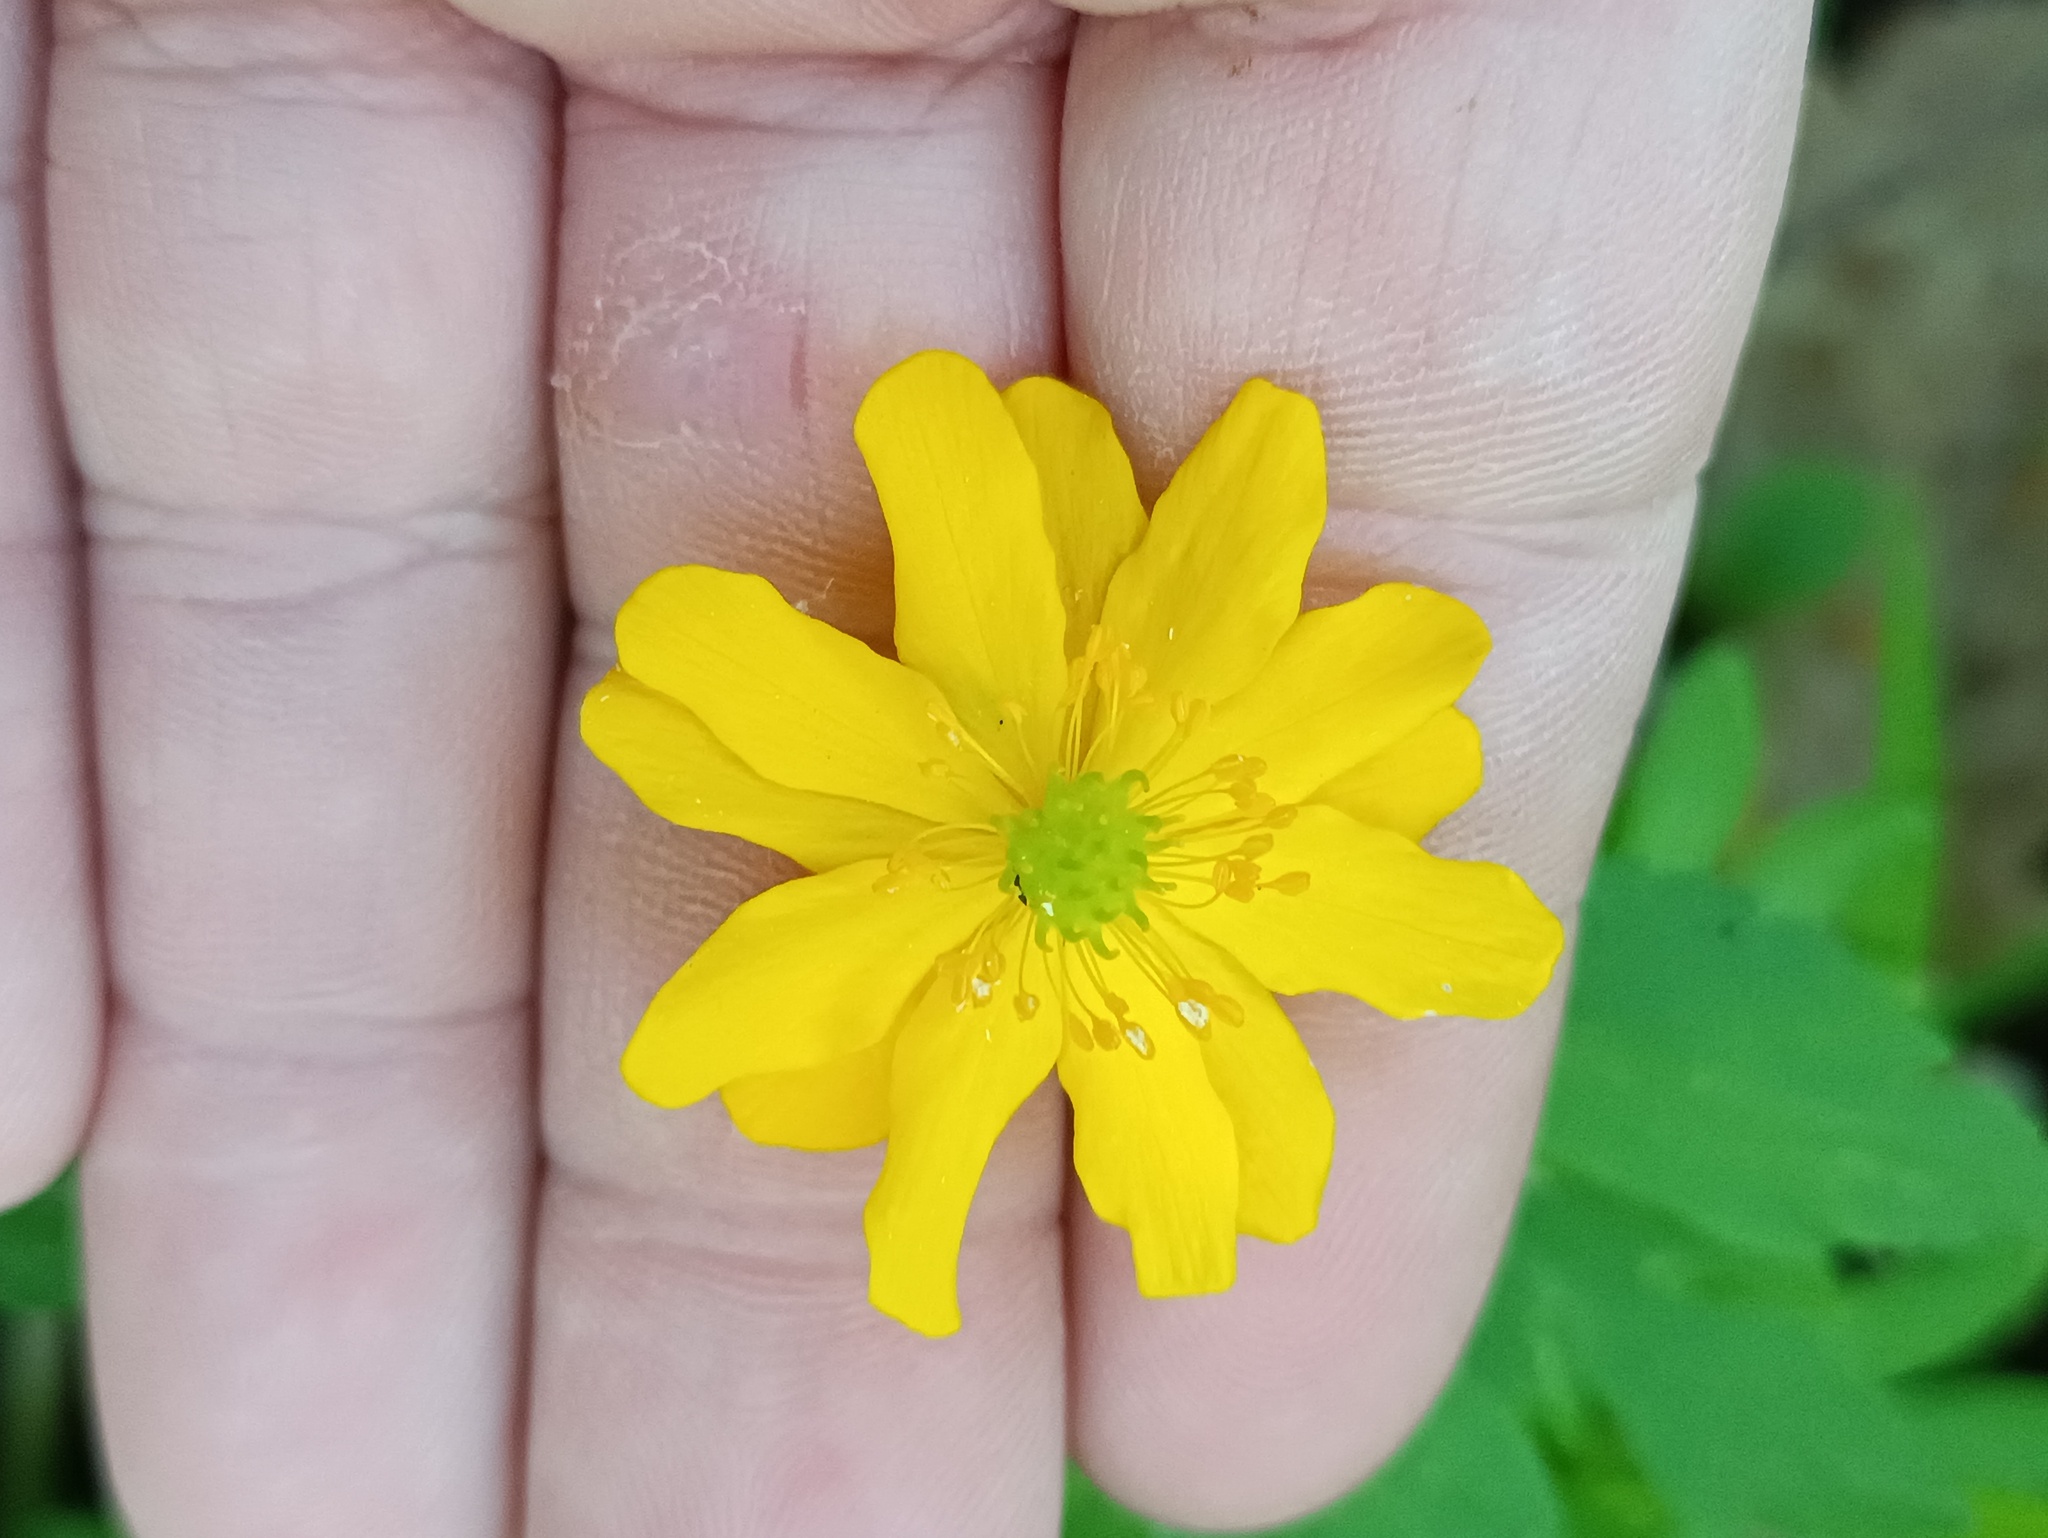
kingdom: Plantae
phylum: Tracheophyta
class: Magnoliopsida
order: Ranunculales
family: Ranunculaceae
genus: Anemone
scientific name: Anemone ranunculoides
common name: Yellow anemone
